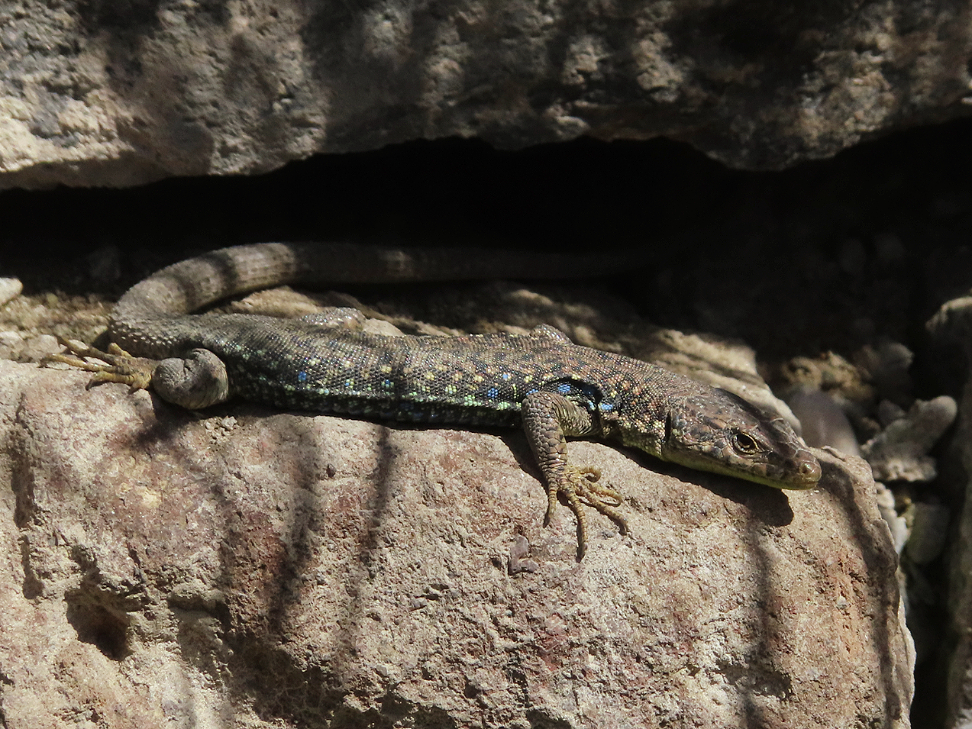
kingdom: Animalia
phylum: Chordata
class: Squamata
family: Lacertidae
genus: Darevskia
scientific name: Darevskia
